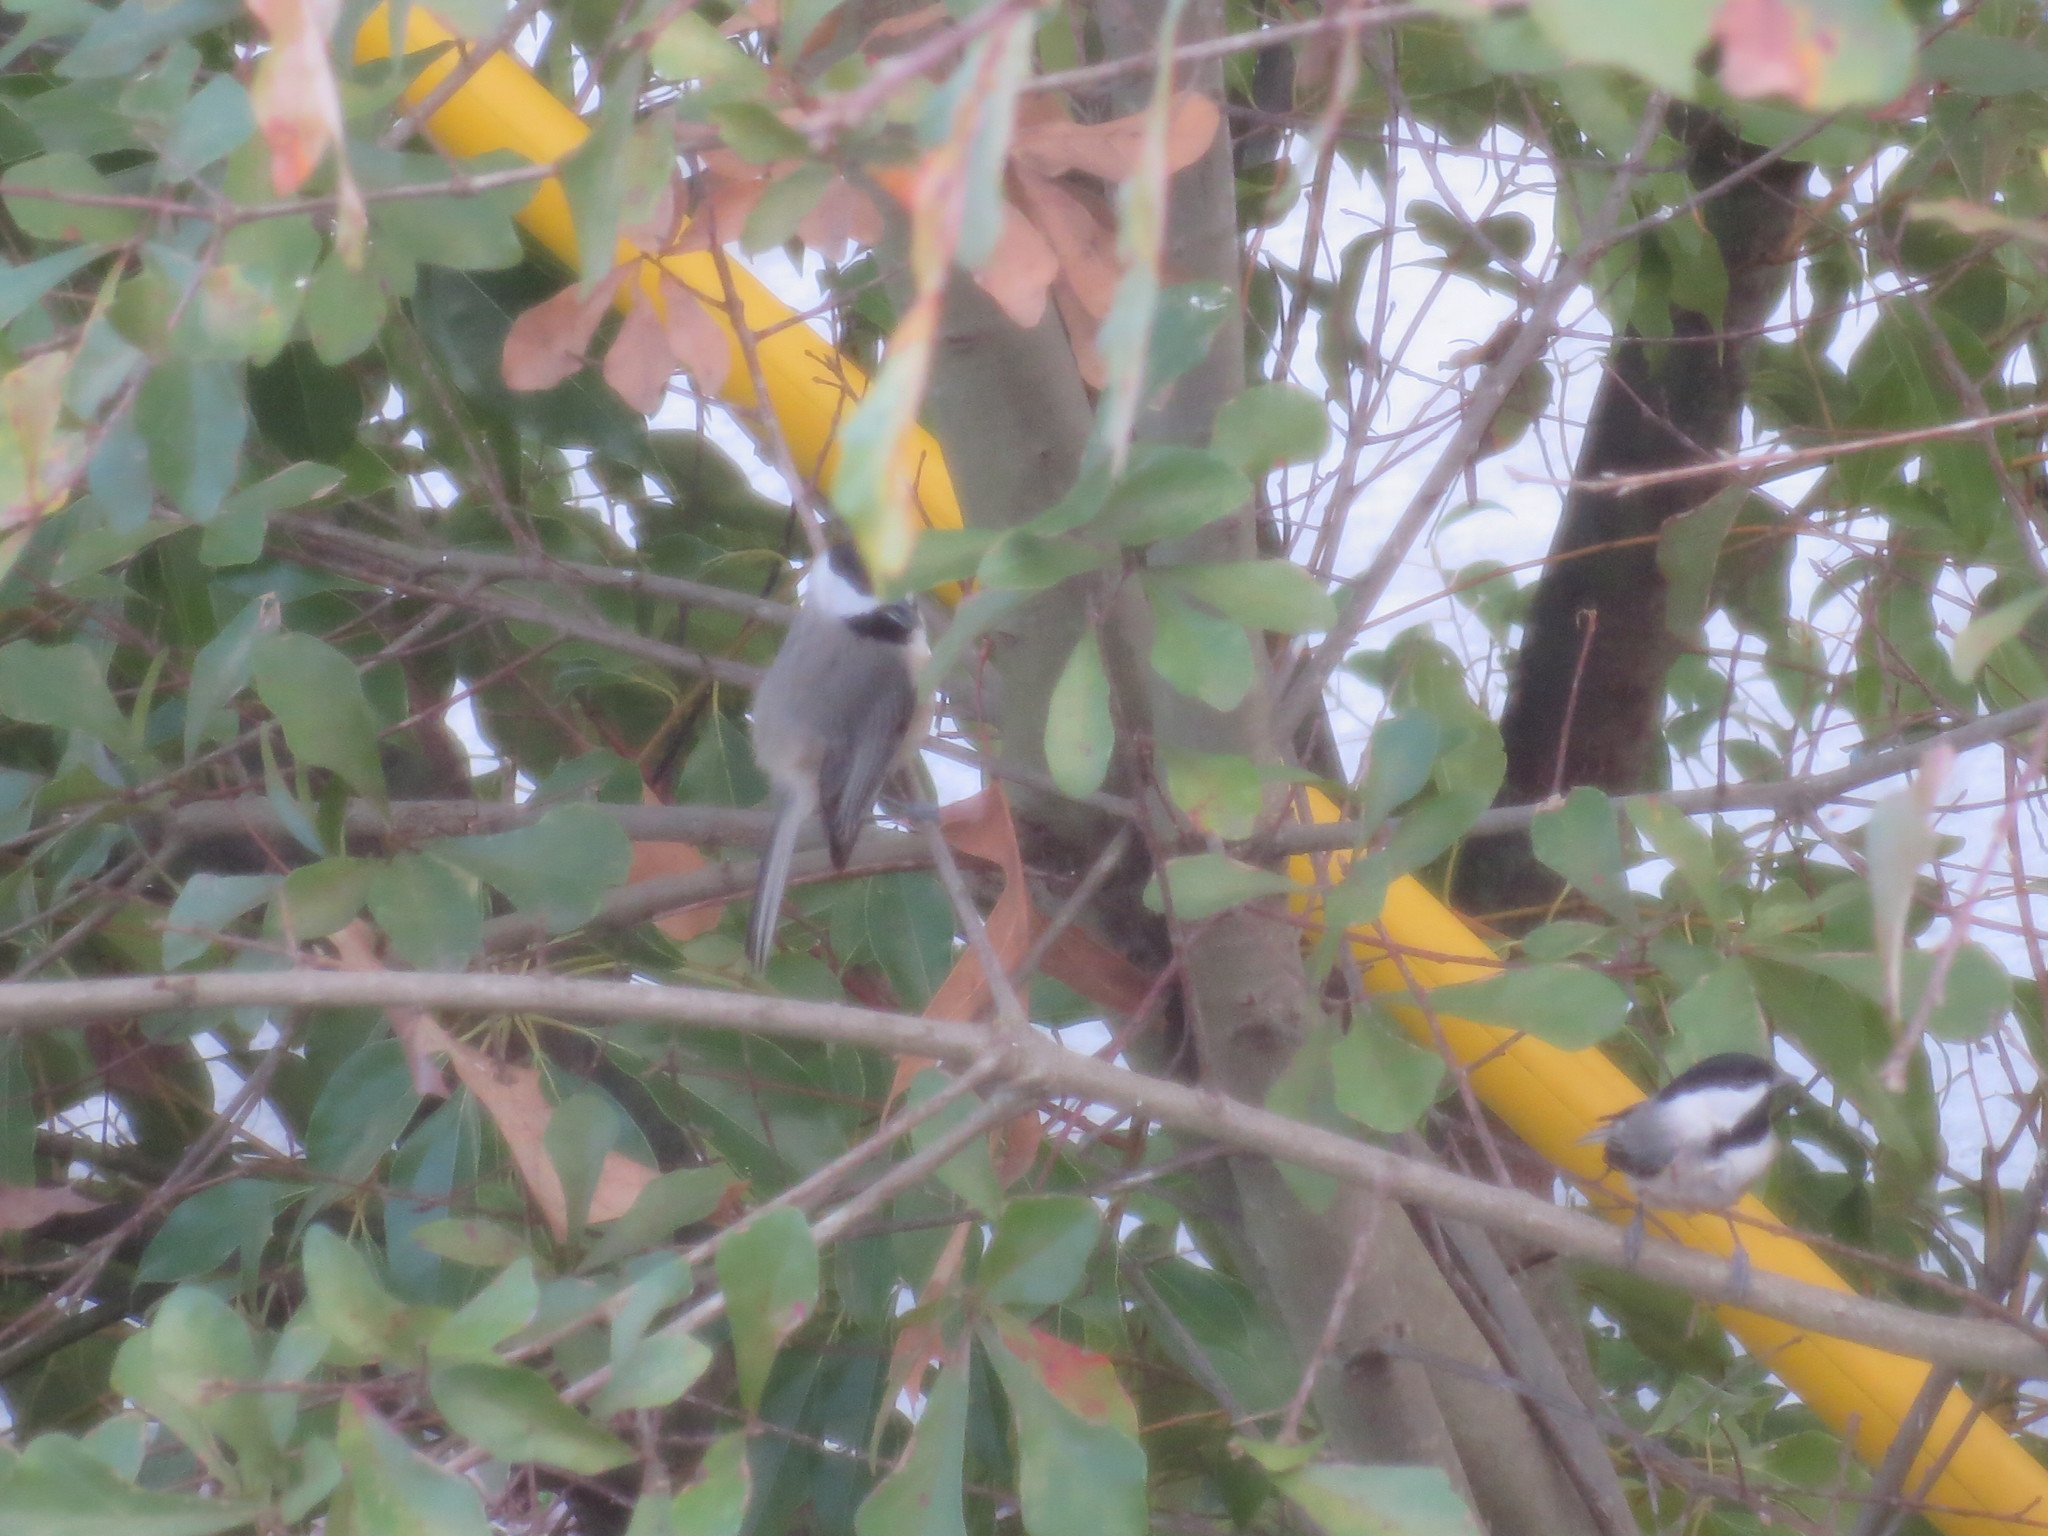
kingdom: Animalia
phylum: Chordata
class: Aves
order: Passeriformes
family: Paridae
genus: Poecile
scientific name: Poecile carolinensis
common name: Carolina chickadee
